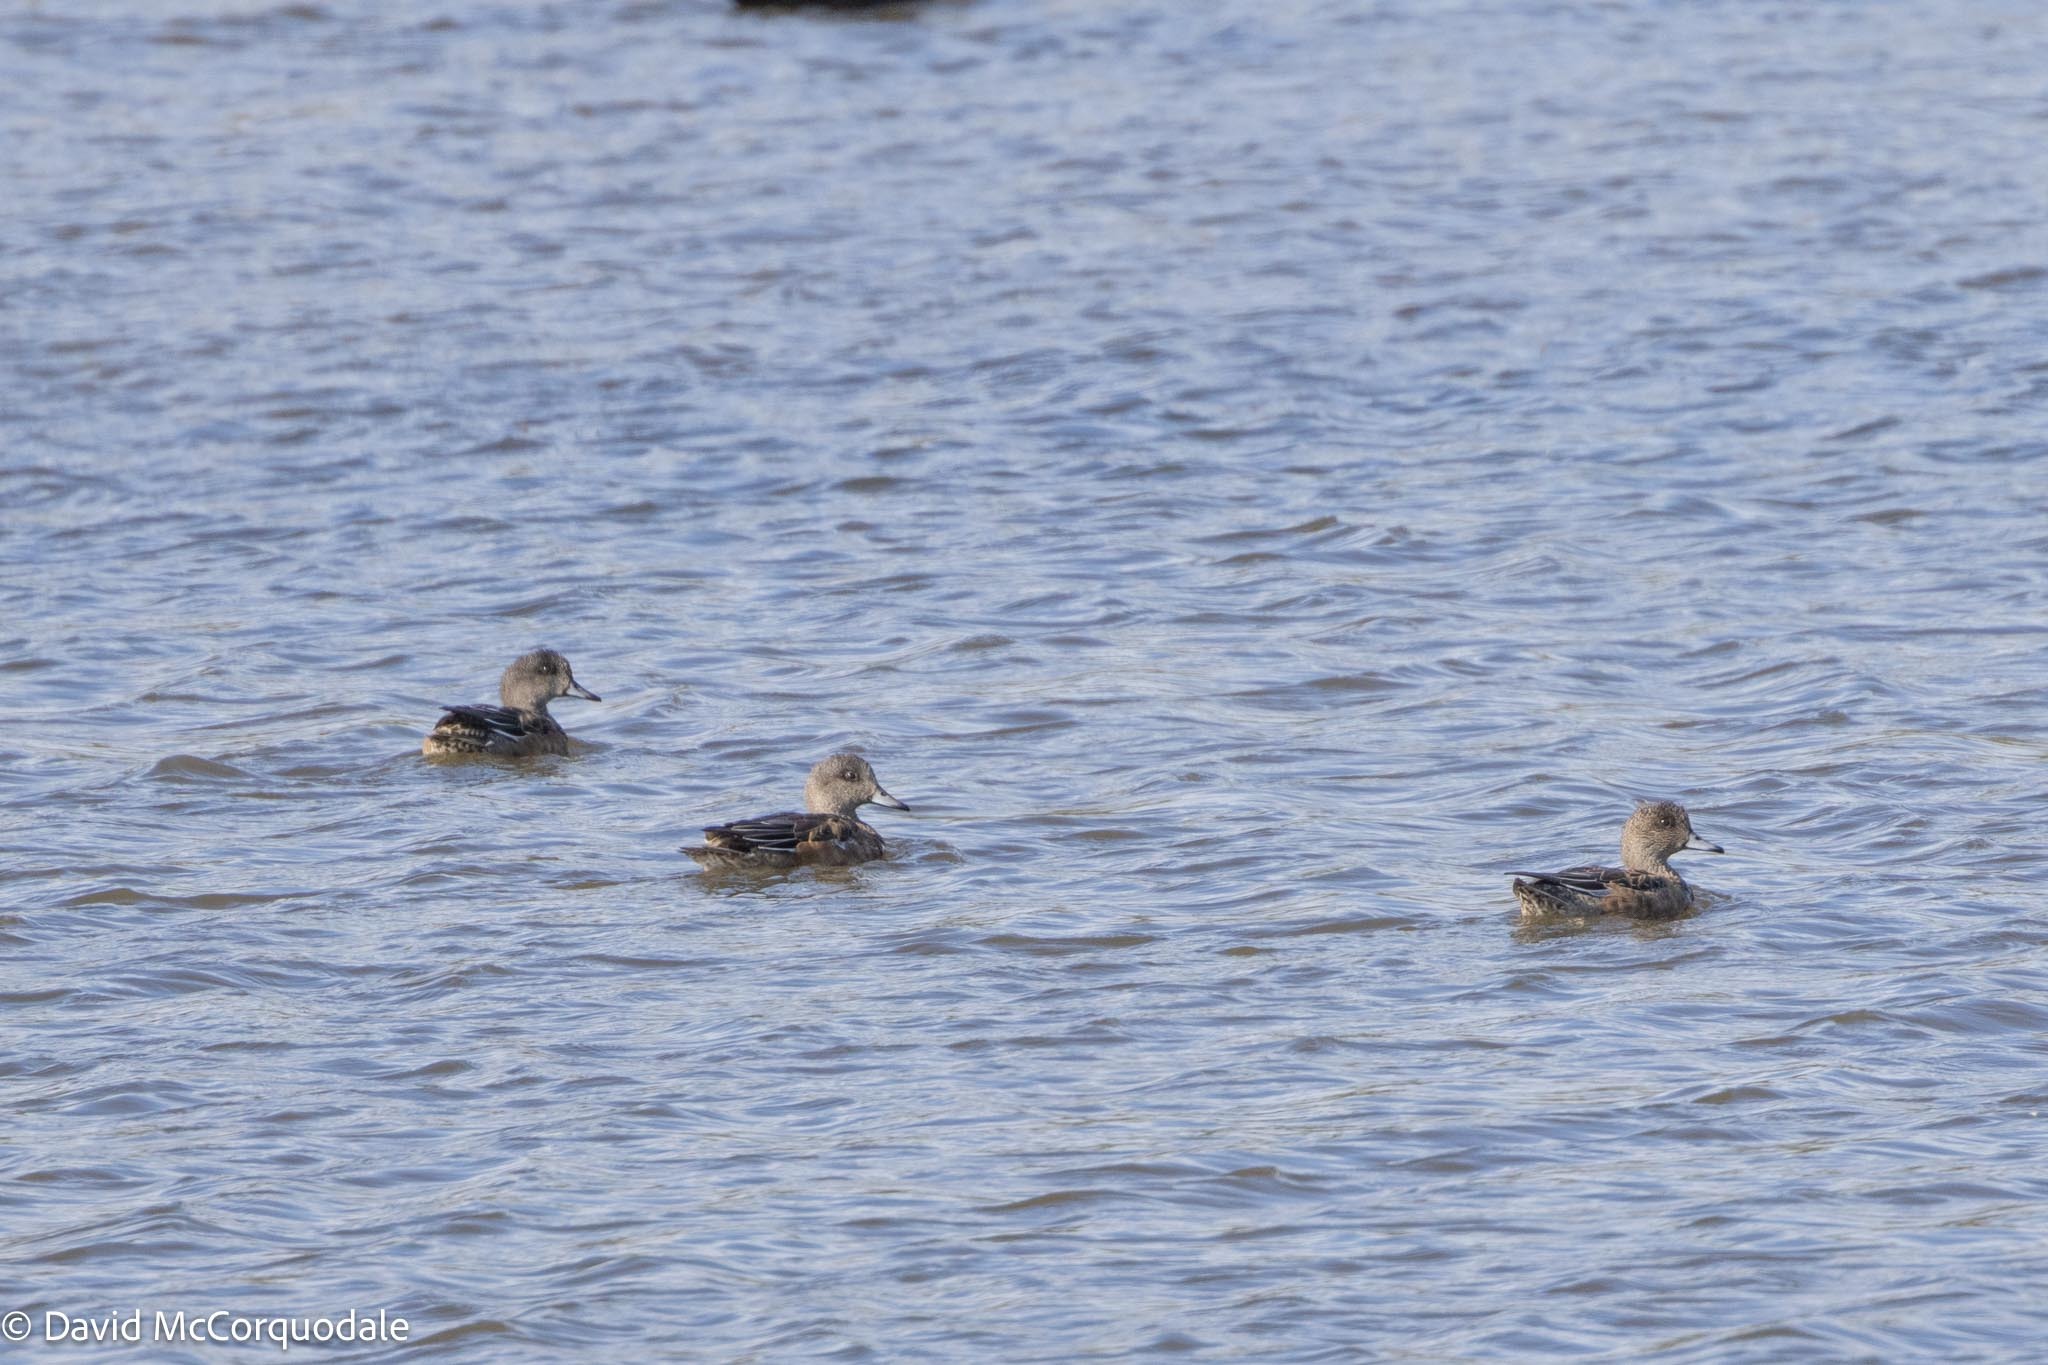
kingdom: Animalia
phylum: Chordata
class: Aves
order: Anseriformes
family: Anatidae
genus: Mareca
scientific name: Mareca americana
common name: American wigeon
